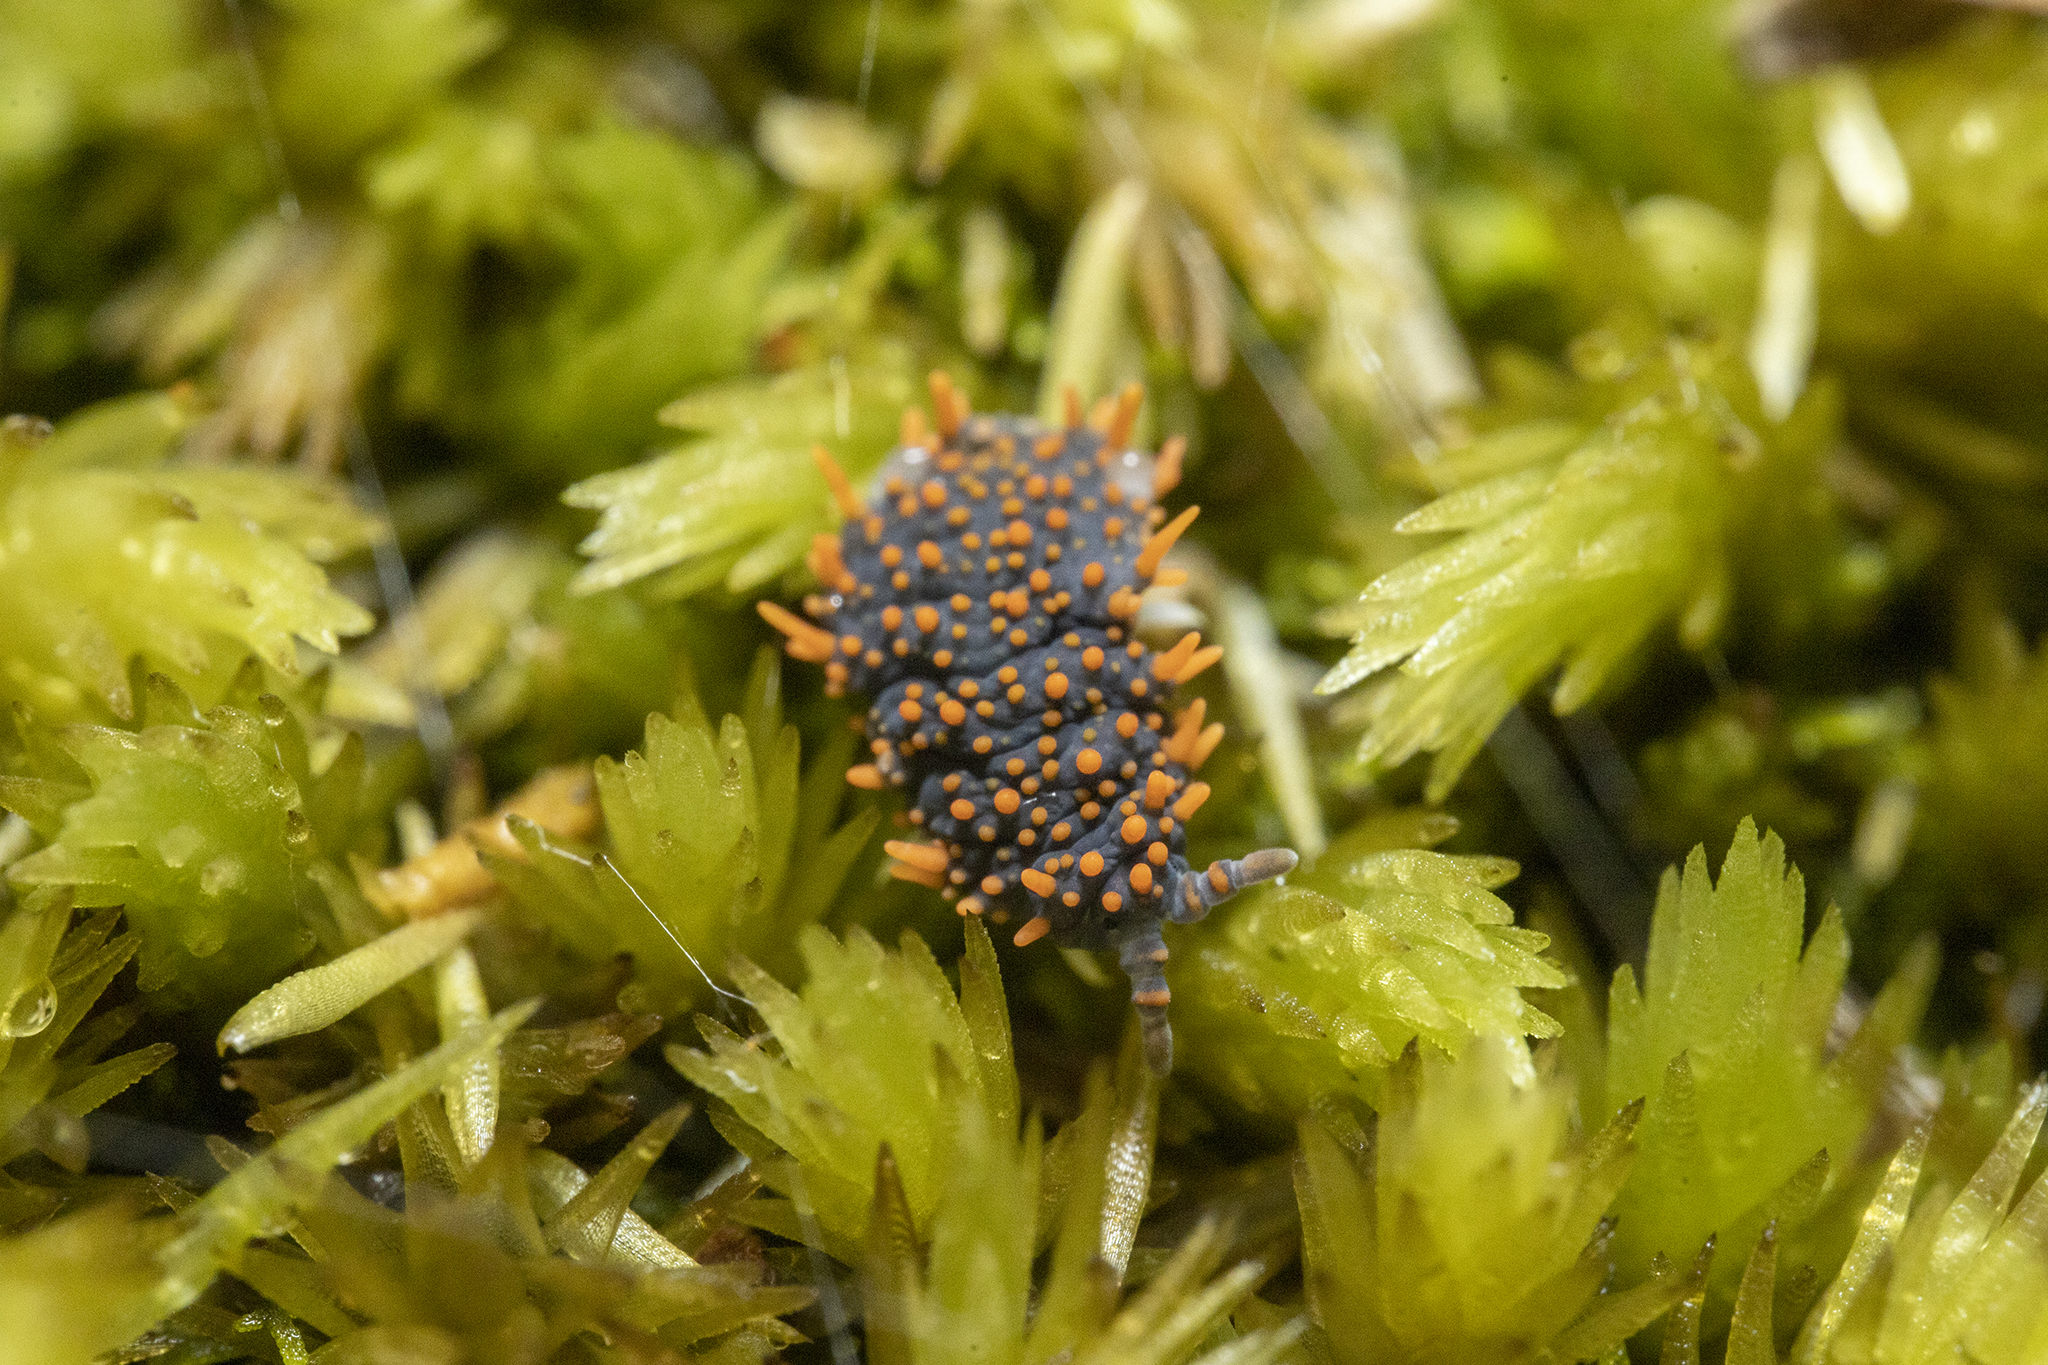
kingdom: Animalia
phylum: Arthropoda
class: Collembola
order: Poduromorpha
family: Neanuridae
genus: Holacanthella
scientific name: Holacanthella paucispinosa
